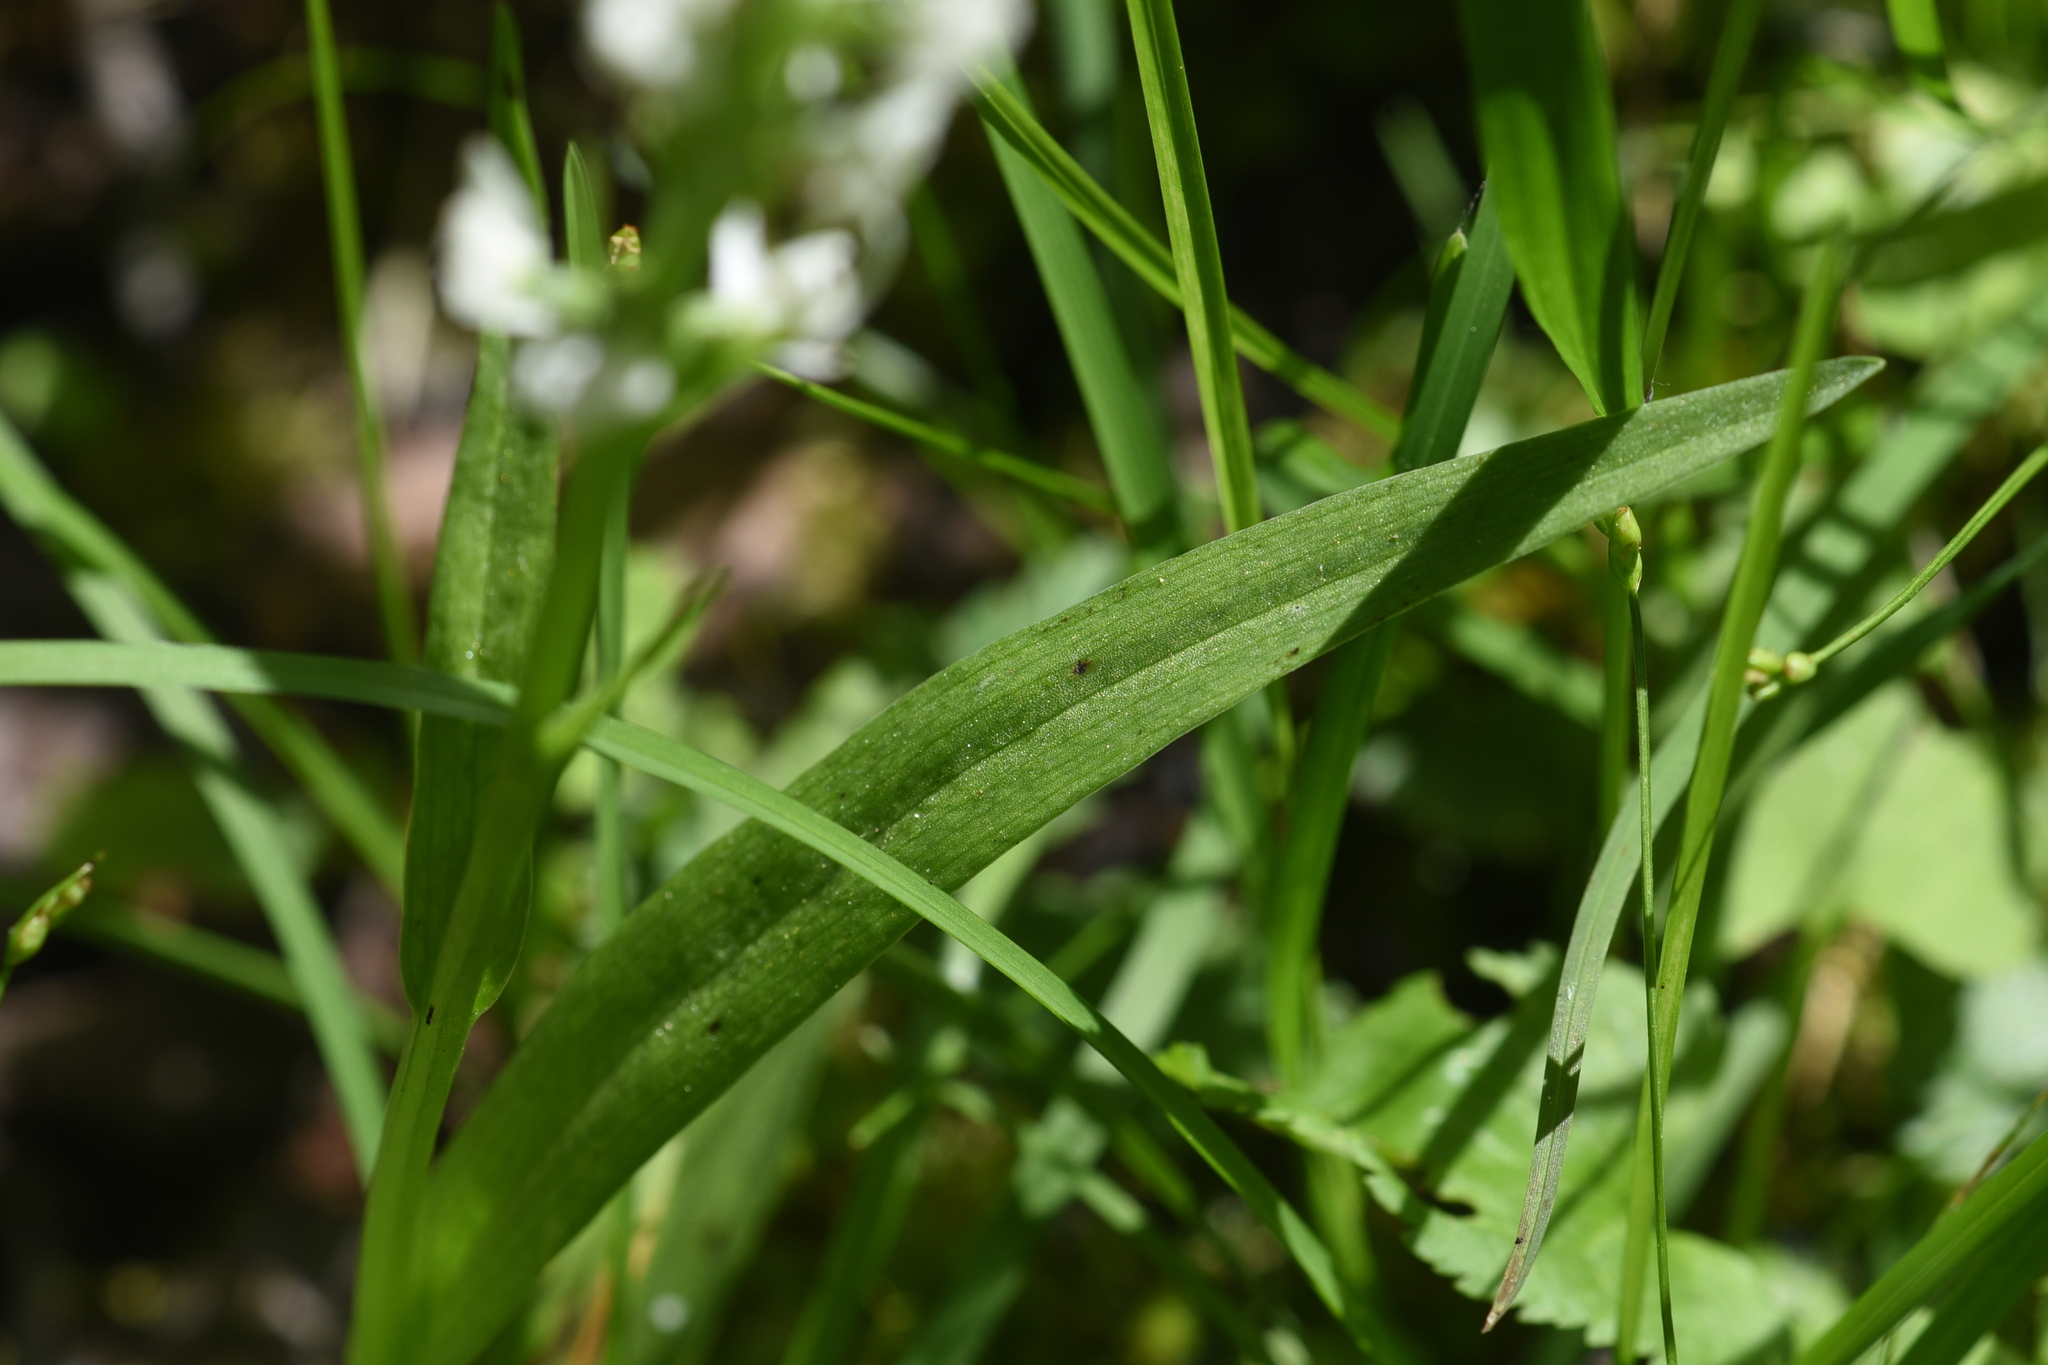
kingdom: Plantae
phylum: Tracheophyta
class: Liliopsida
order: Asparagales
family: Orchidaceae
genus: Platanthera
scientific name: Platanthera dilatata
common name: Bog candles
